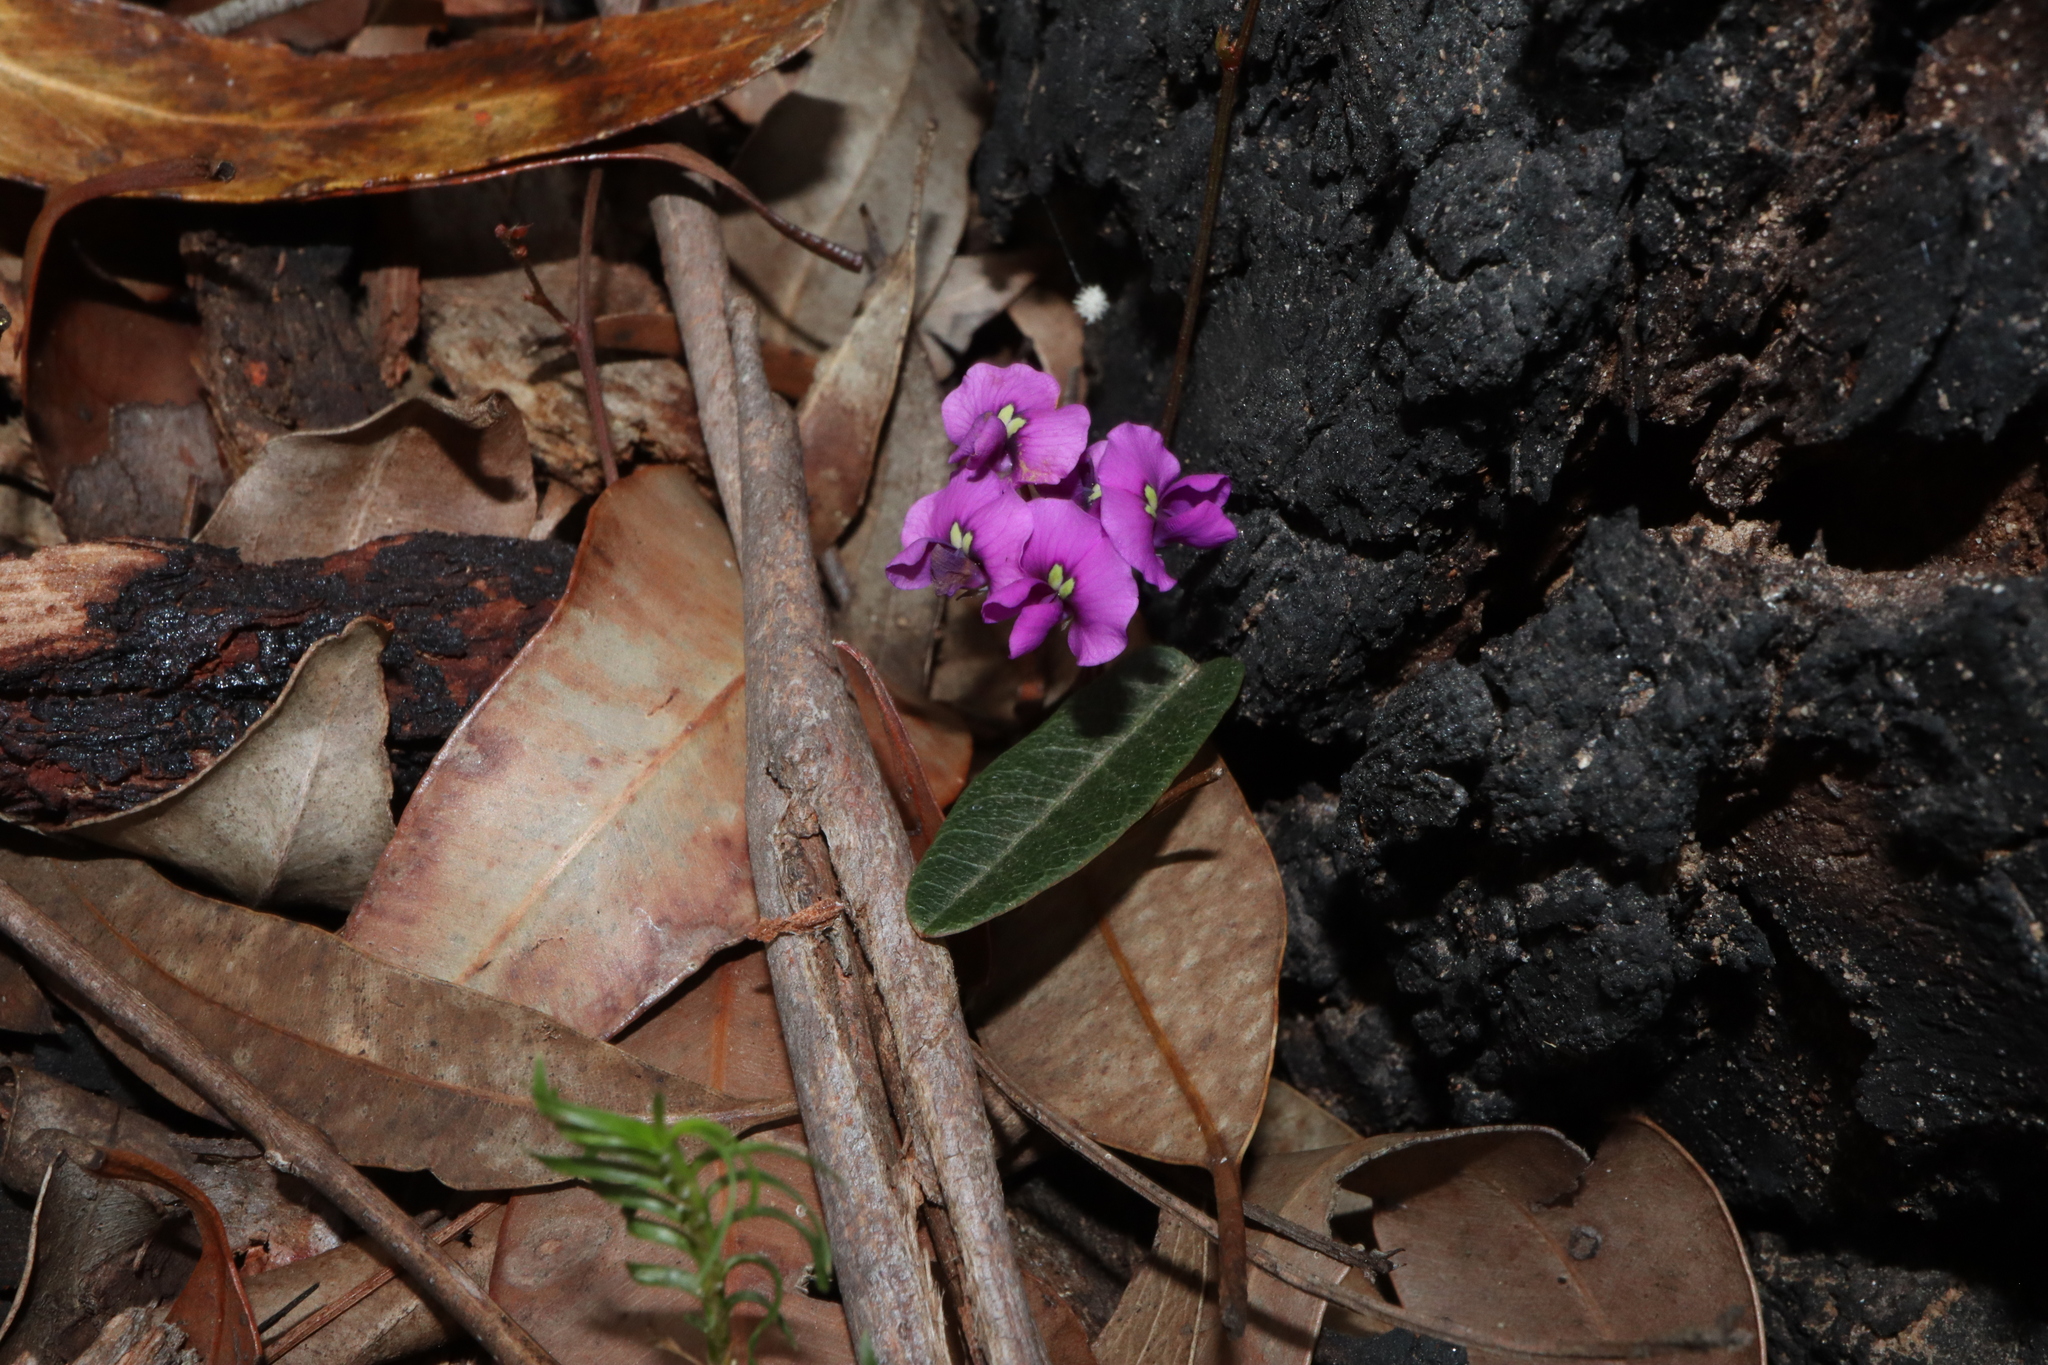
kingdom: Plantae
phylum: Tracheophyta
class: Magnoliopsida
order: Fabales
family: Fabaceae
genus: Hardenbergia
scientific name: Hardenbergia violacea
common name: Coral-pea
